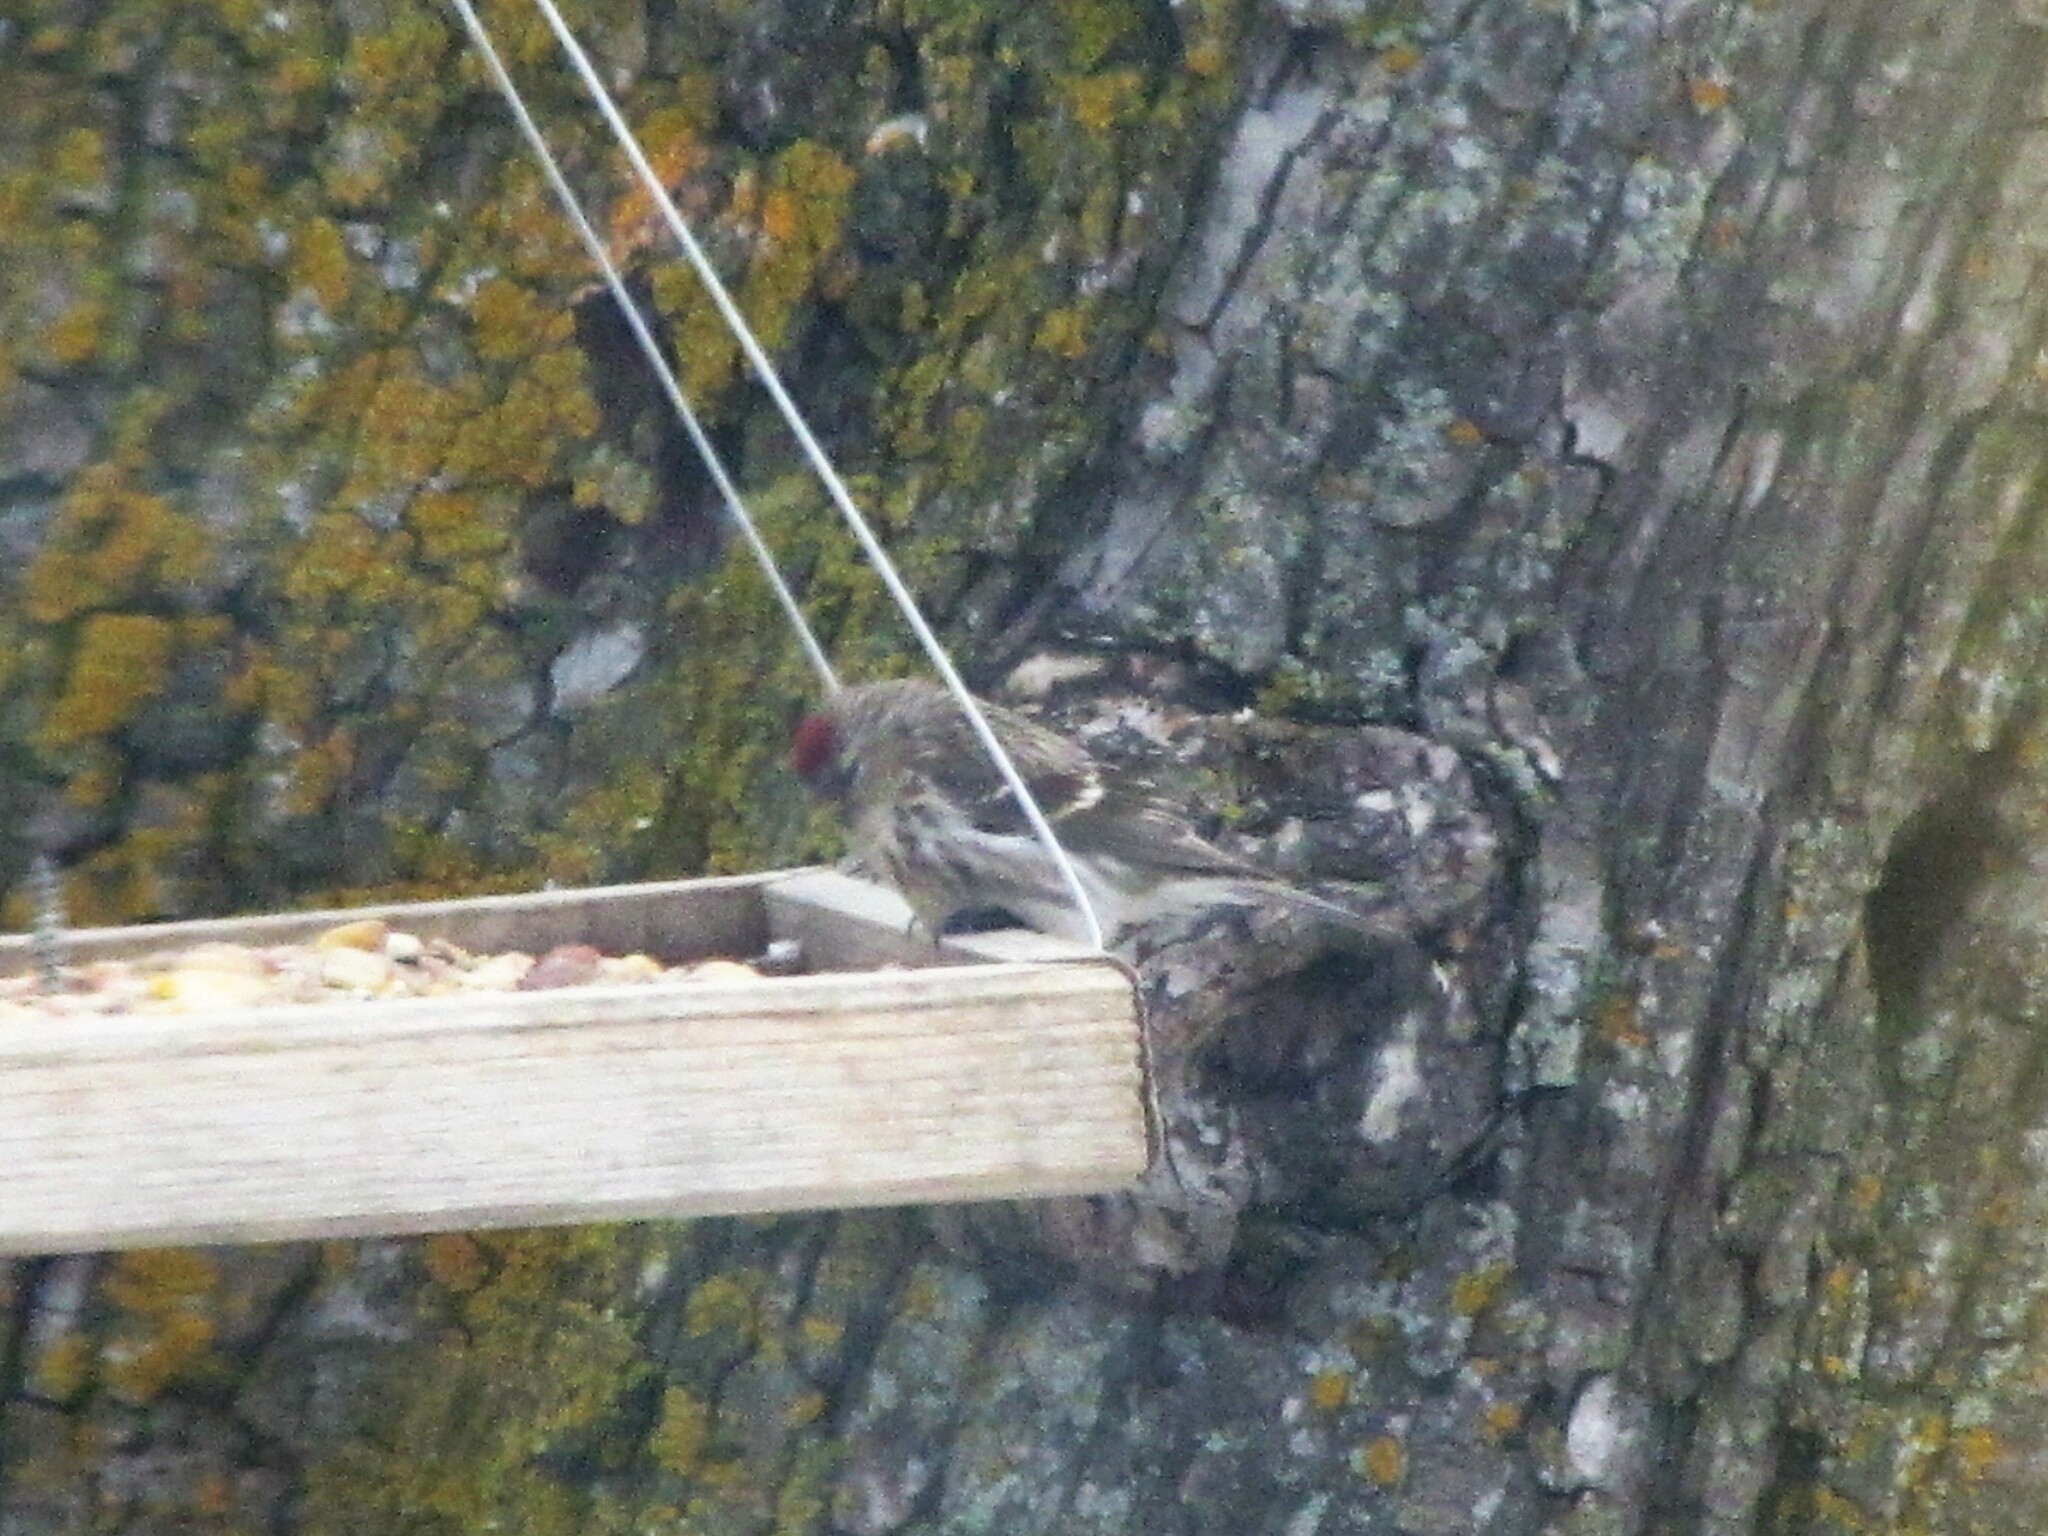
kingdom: Animalia
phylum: Chordata
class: Aves
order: Passeriformes
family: Fringillidae
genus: Acanthis
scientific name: Acanthis flammea
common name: Common redpoll
